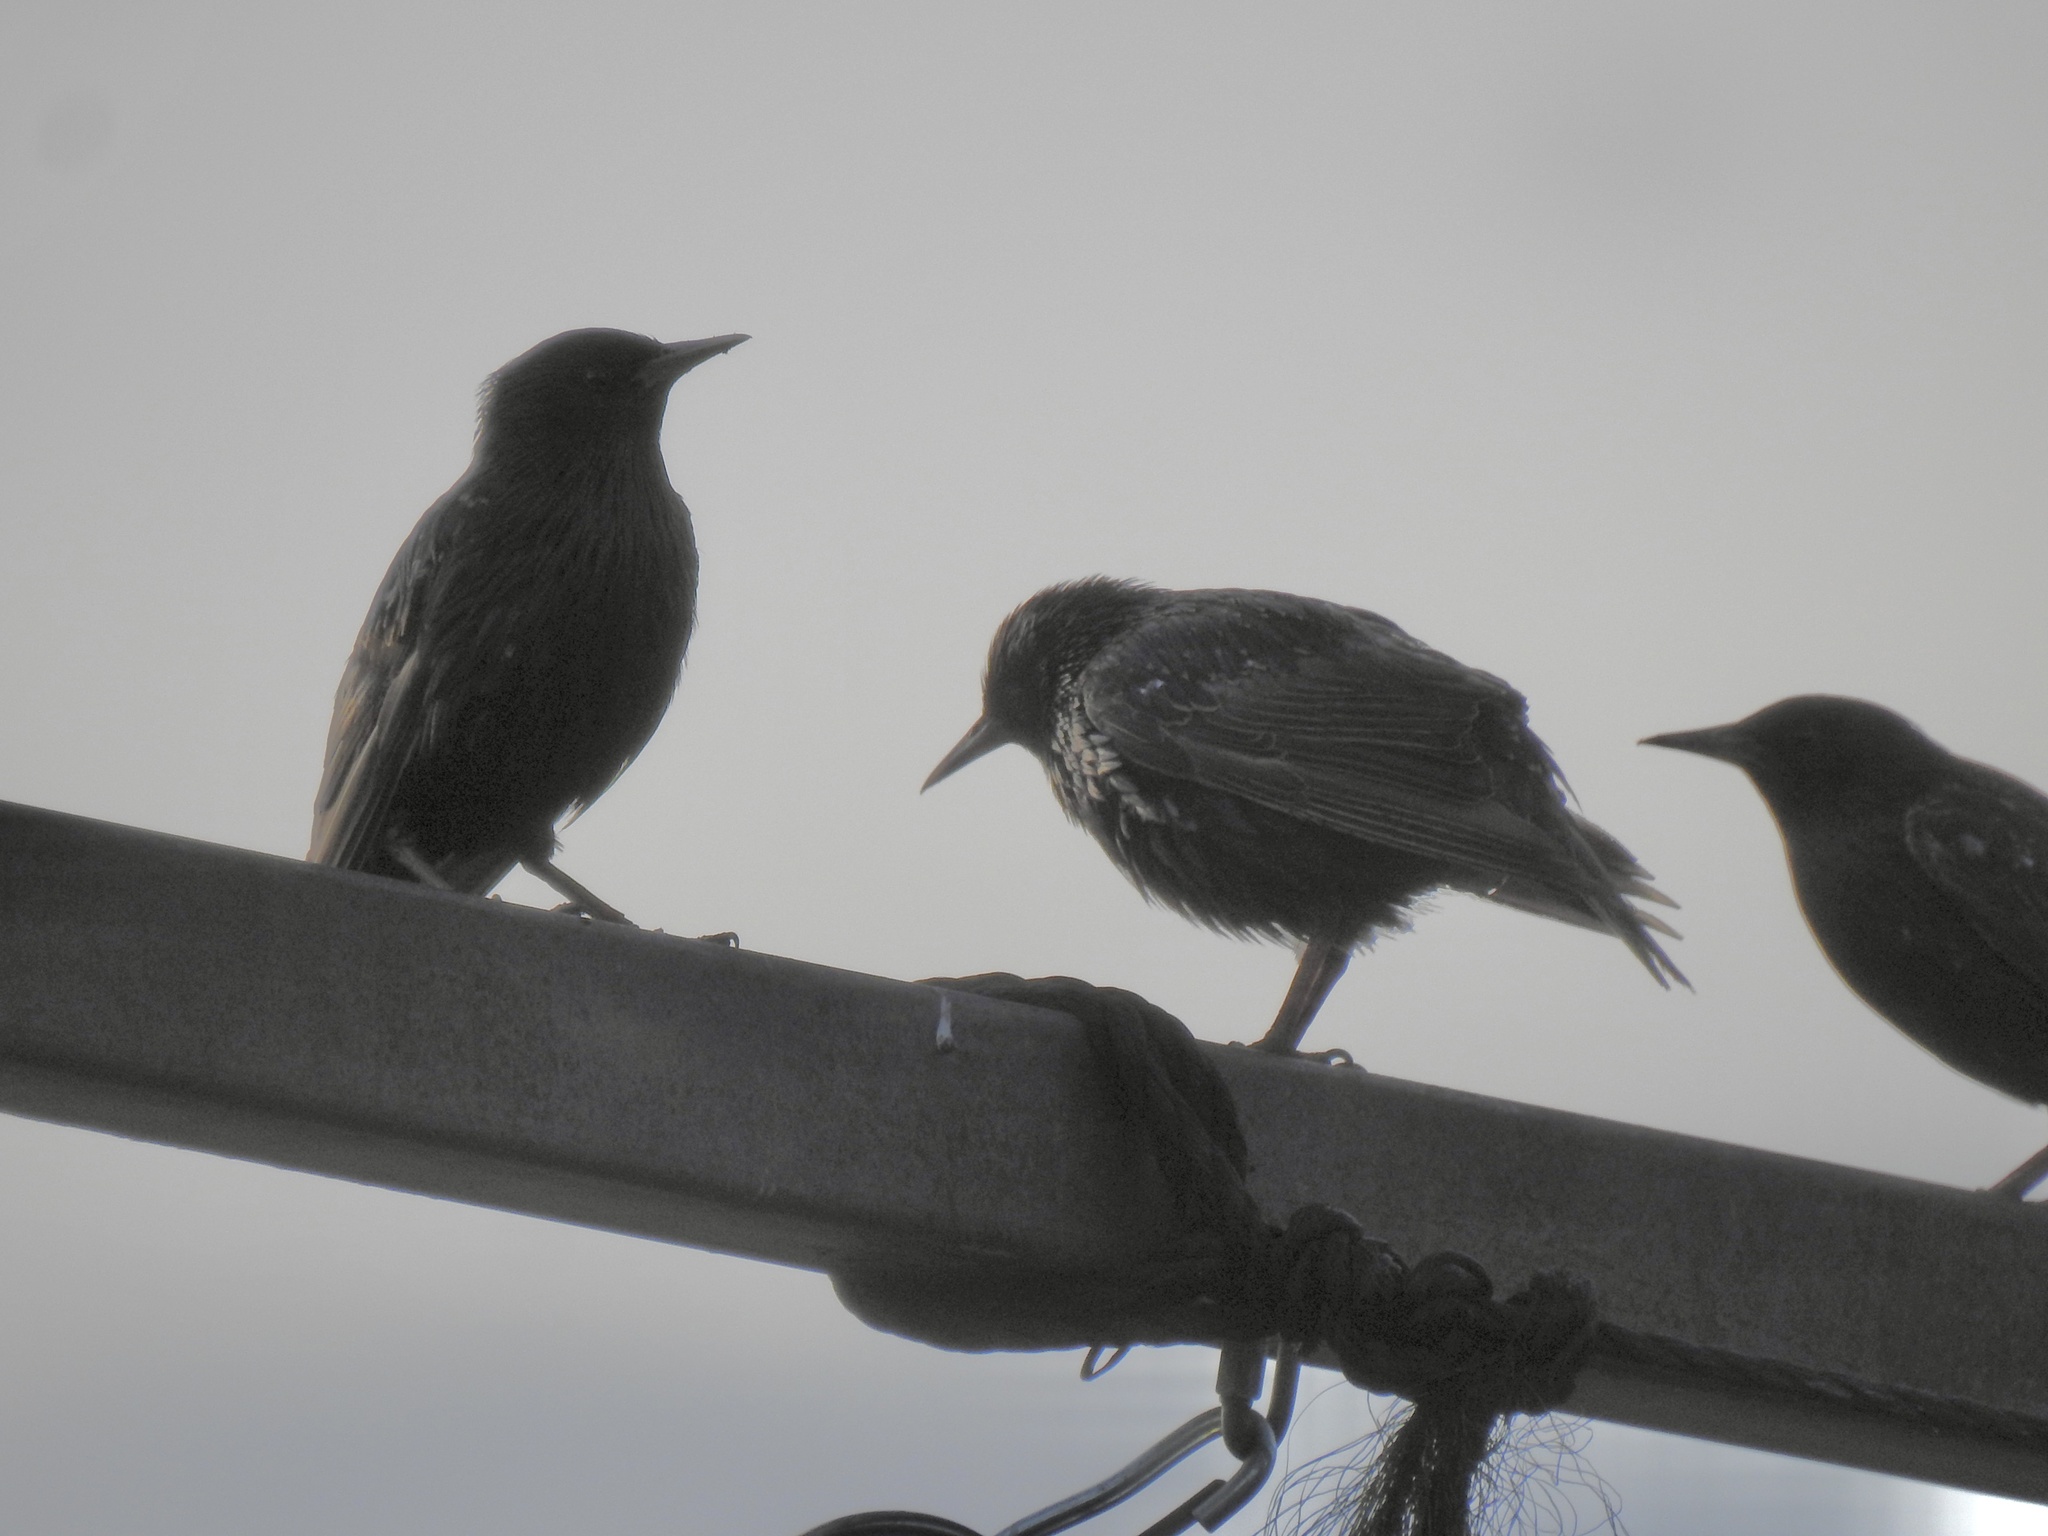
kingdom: Animalia
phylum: Chordata
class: Aves
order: Passeriformes
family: Sturnidae
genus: Sturnus
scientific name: Sturnus vulgaris
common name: Common starling
